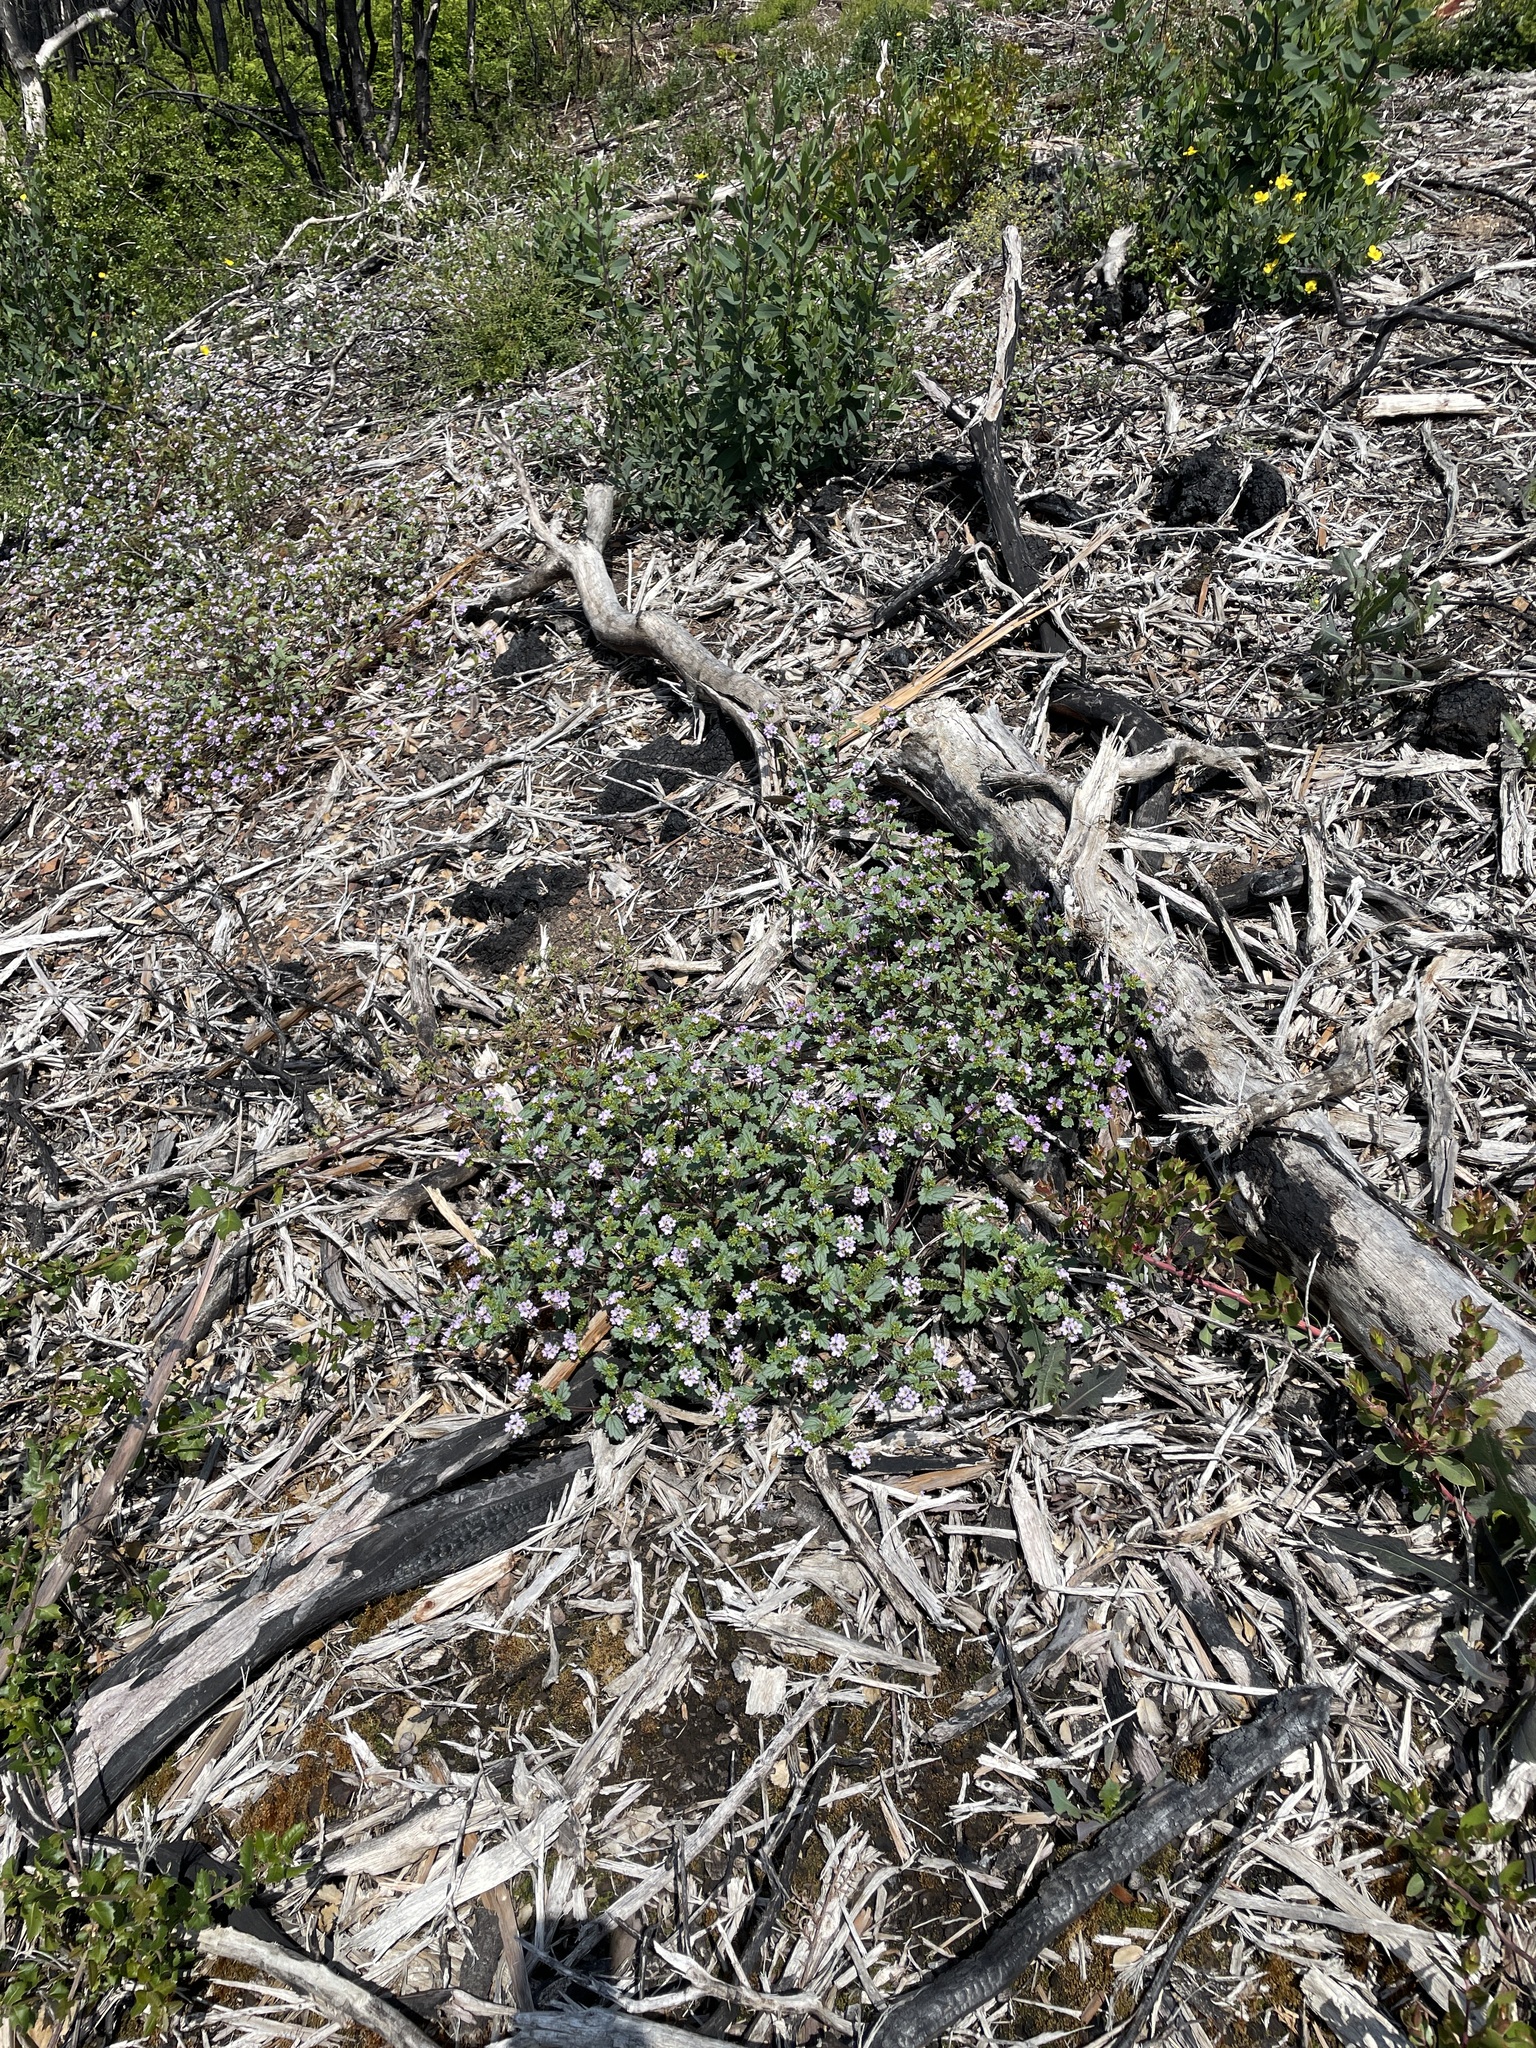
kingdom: Plantae
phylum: Tracheophyta
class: Magnoliopsida
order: Boraginales
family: Hydrophyllaceae
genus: Phacelia
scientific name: Phacelia suaveolens
